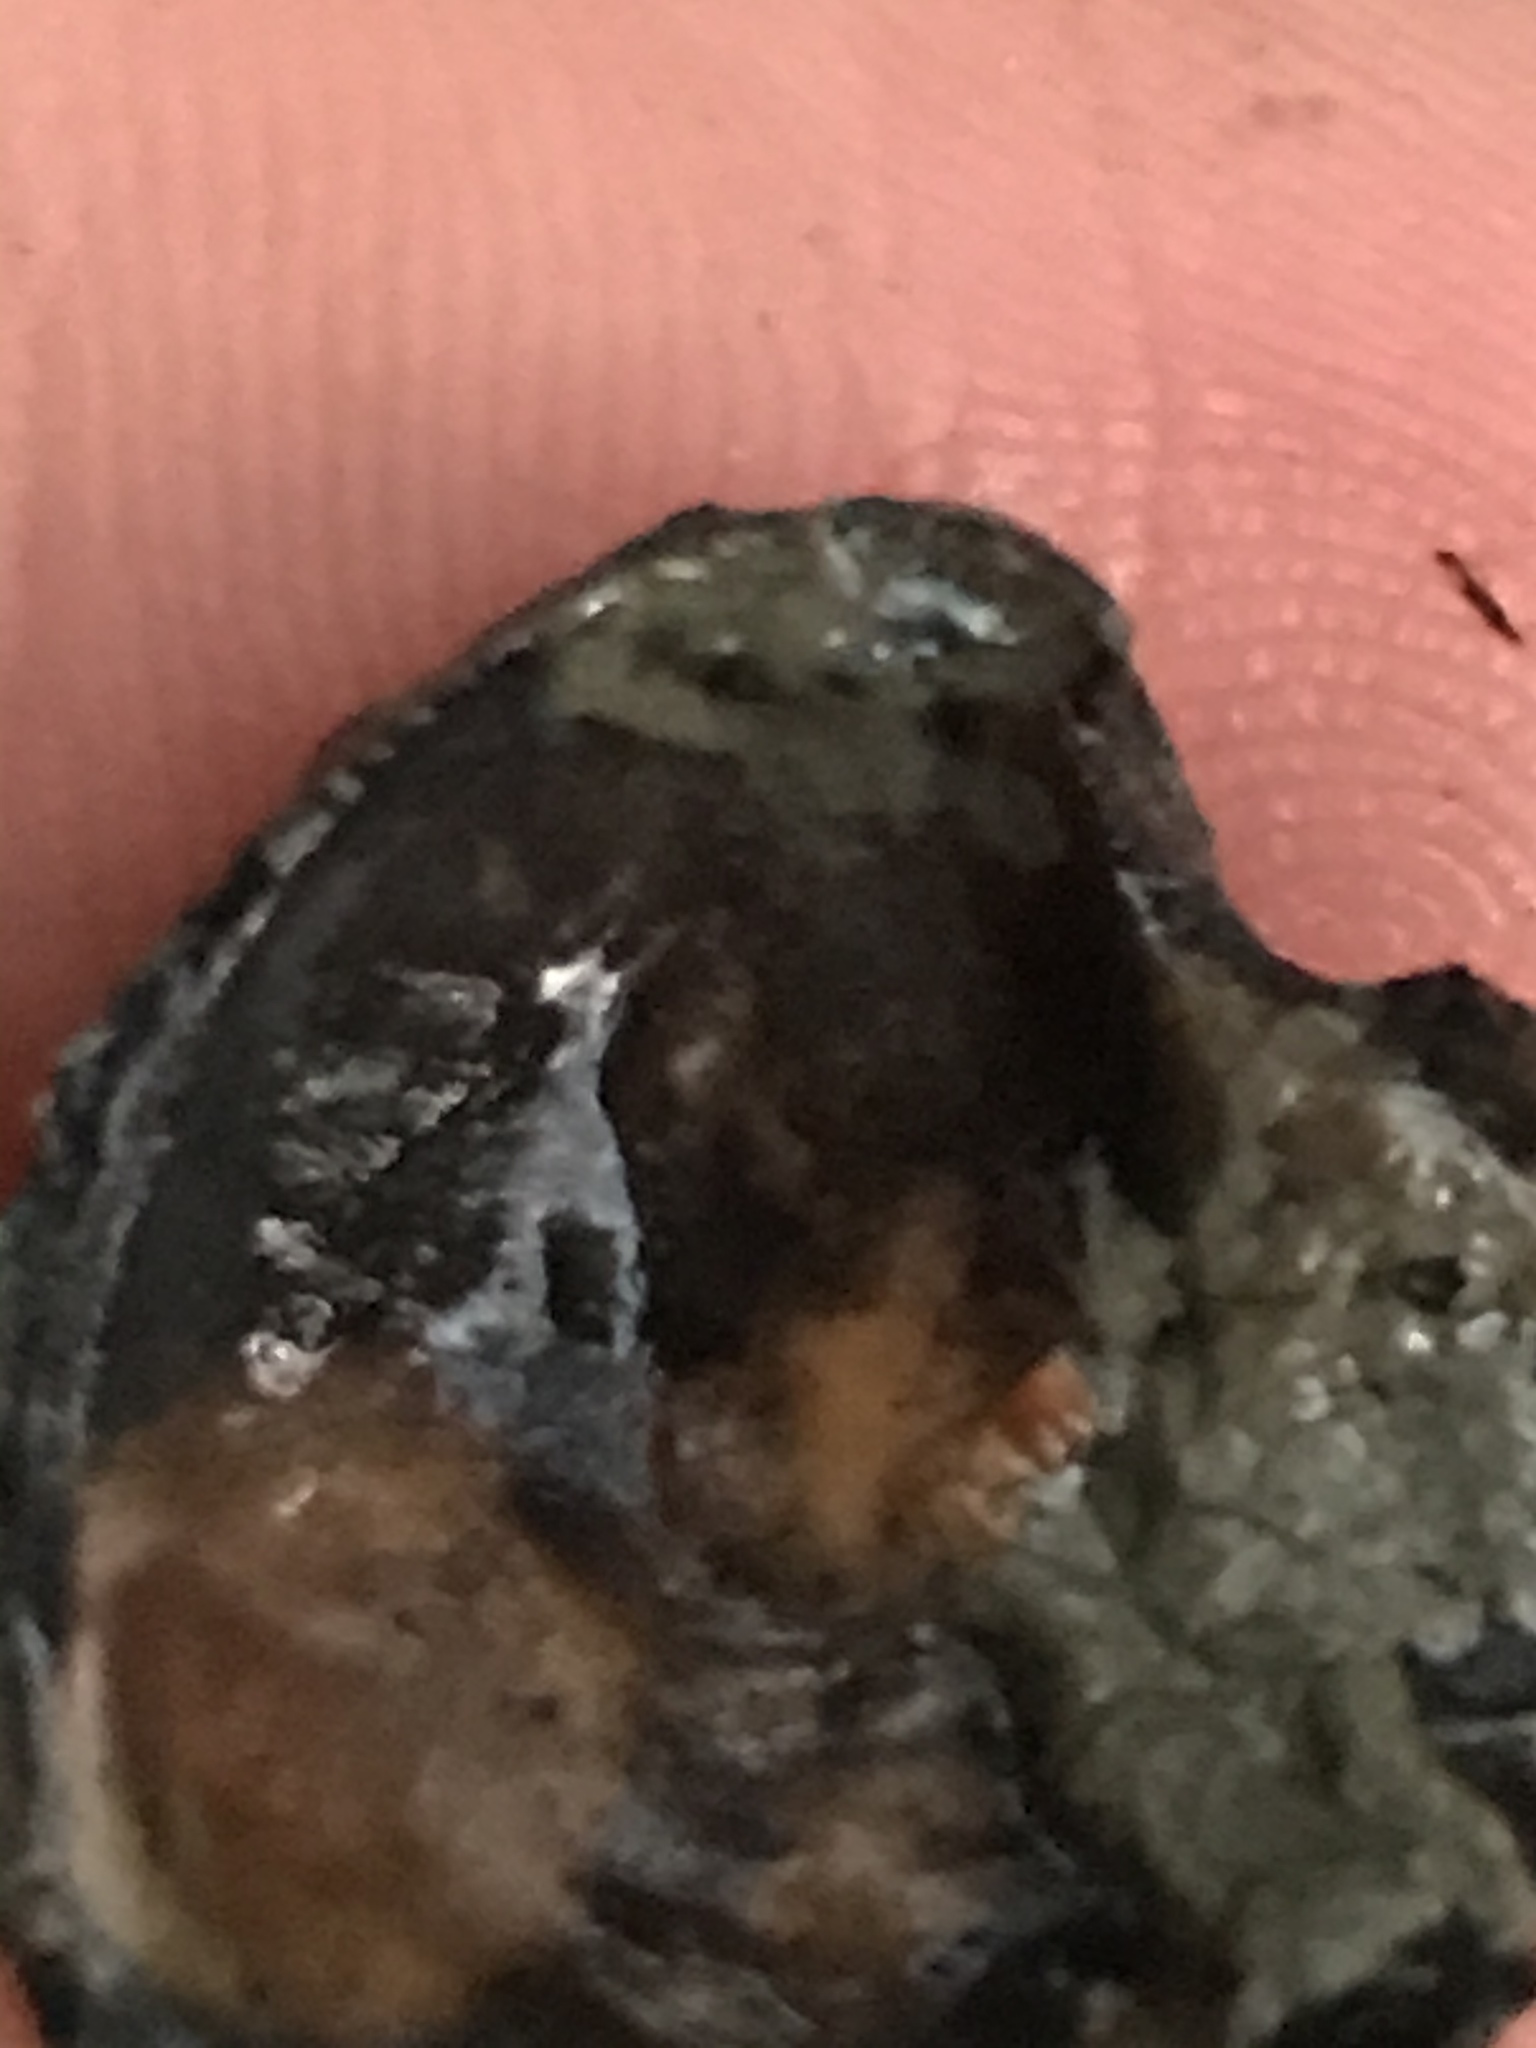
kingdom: Animalia
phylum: Mollusca
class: Bivalvia
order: Ostreida
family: Ostreidae
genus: Ostrea
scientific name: Ostrea lurida
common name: Olympia flat oyster
